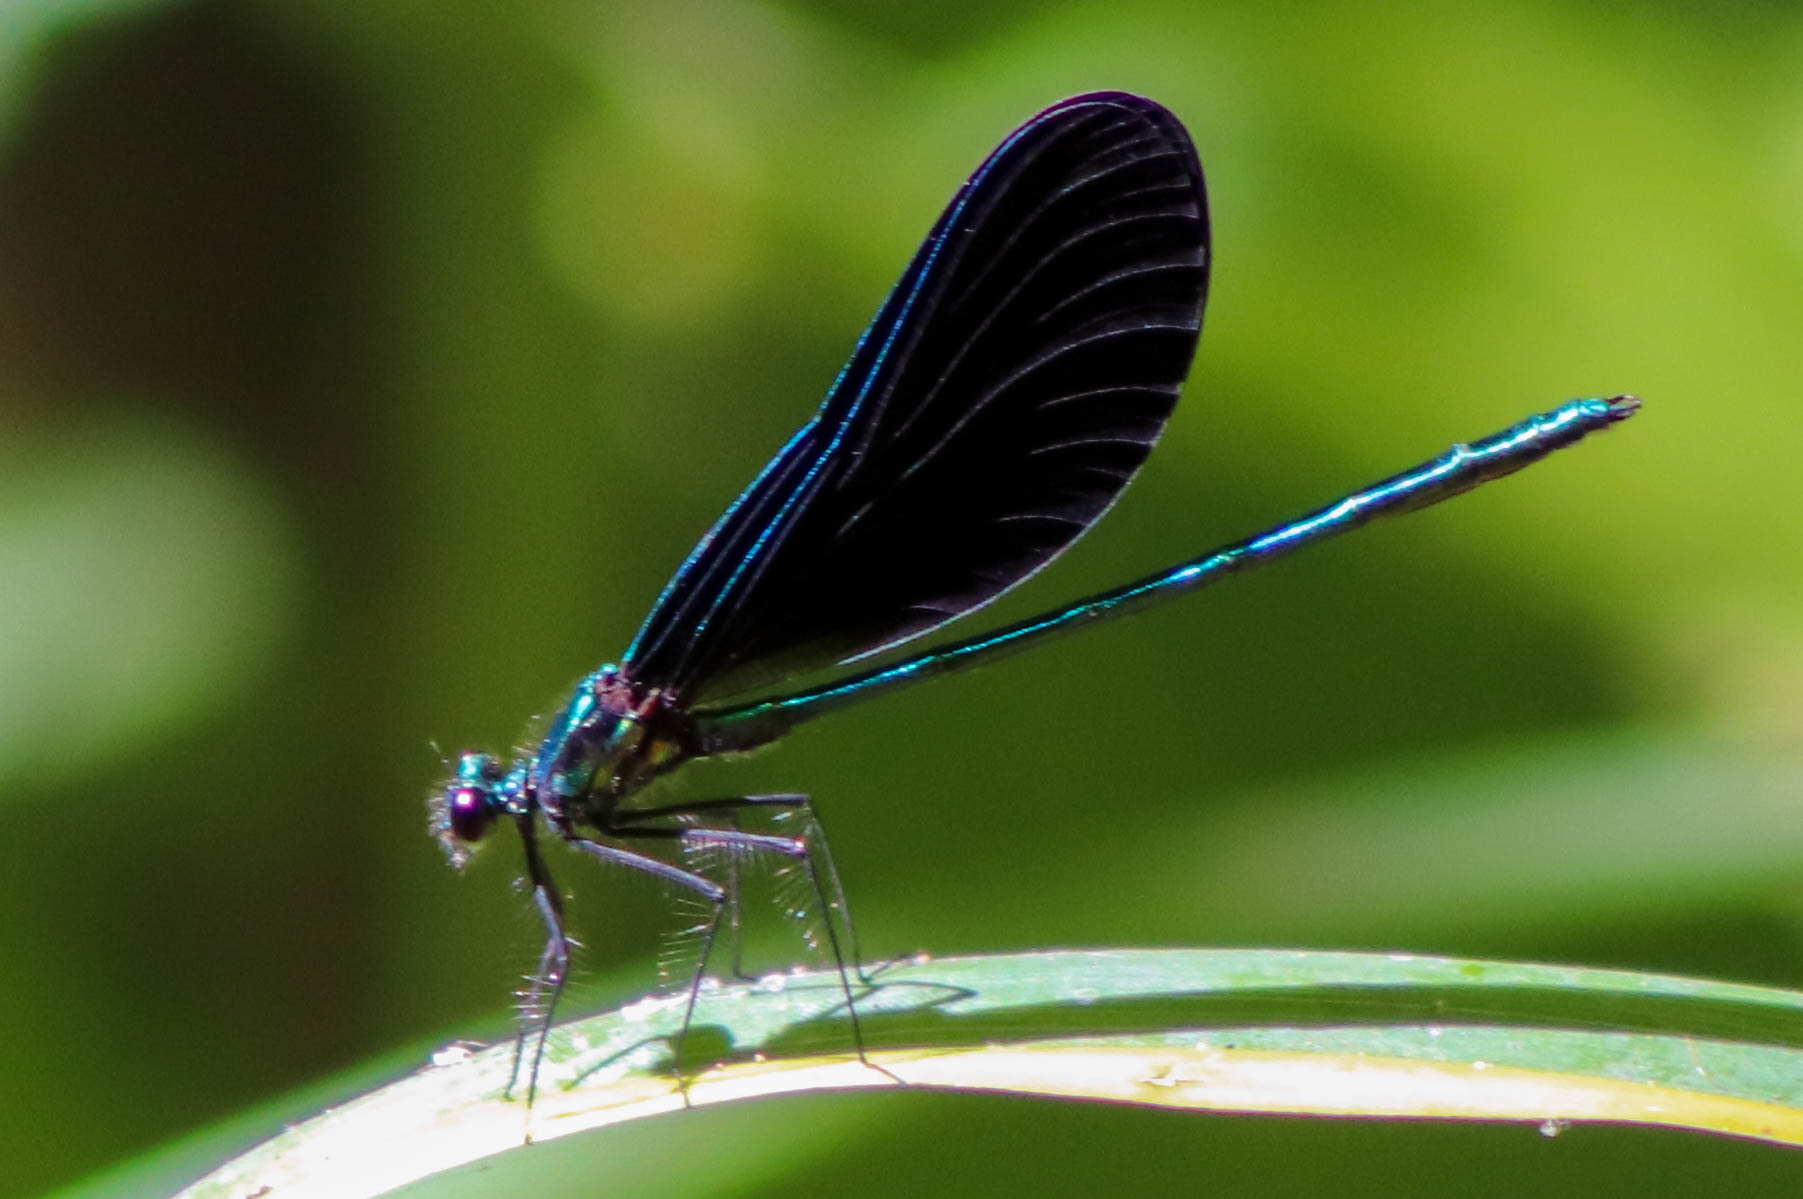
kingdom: Animalia
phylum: Arthropoda
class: Insecta
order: Odonata
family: Calopterygidae
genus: Calopteryx
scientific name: Calopteryx maculata
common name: Ebony jewelwing
